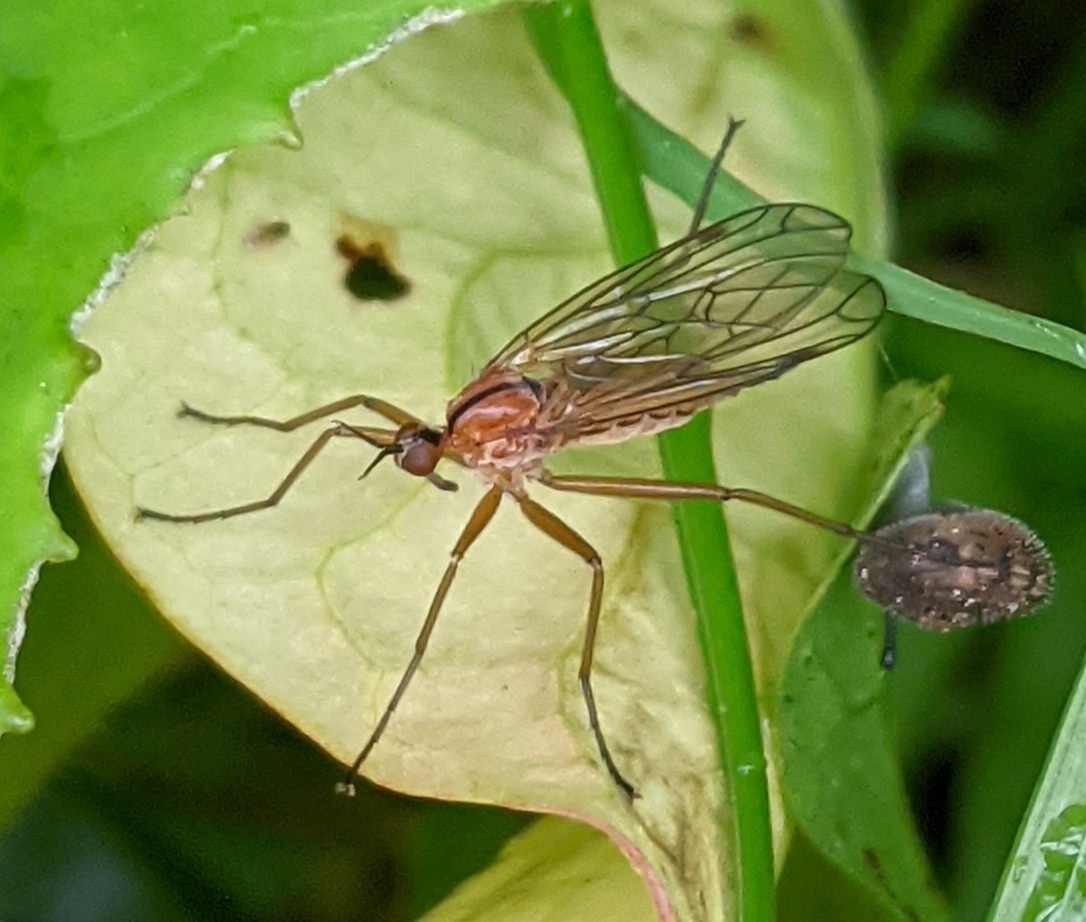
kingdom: Animalia
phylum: Arthropoda
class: Insecta
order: Diptera
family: Empididae
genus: Empis
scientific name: Empis stercorea
